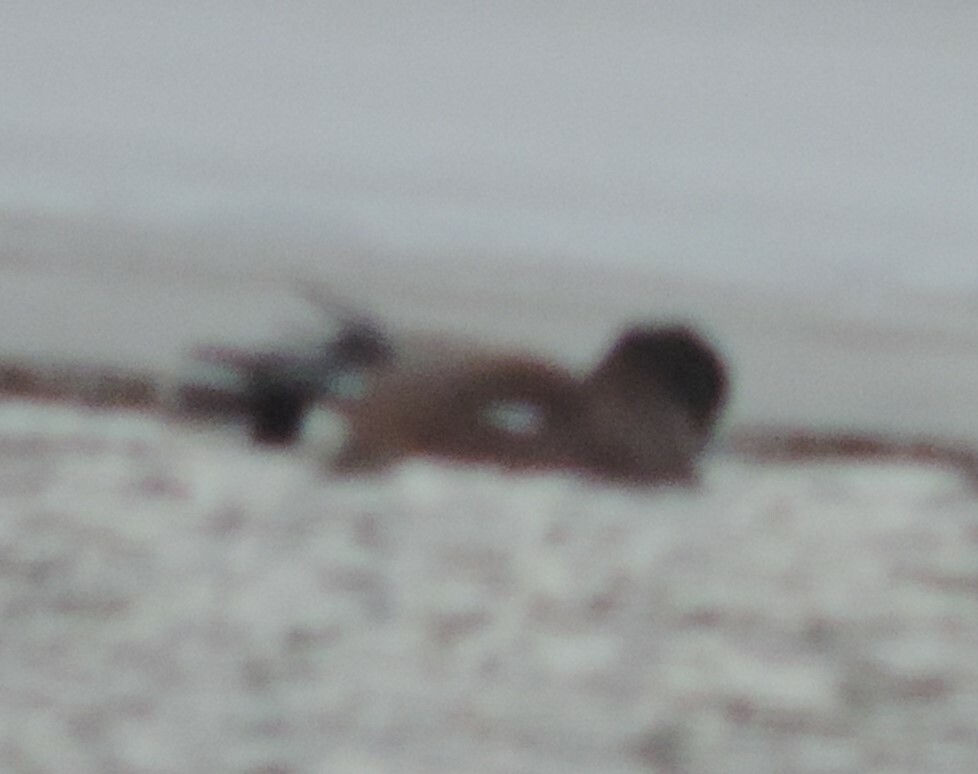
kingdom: Animalia
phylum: Chordata
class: Aves
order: Anseriformes
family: Anatidae
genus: Mareca
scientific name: Mareca americana
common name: American wigeon
